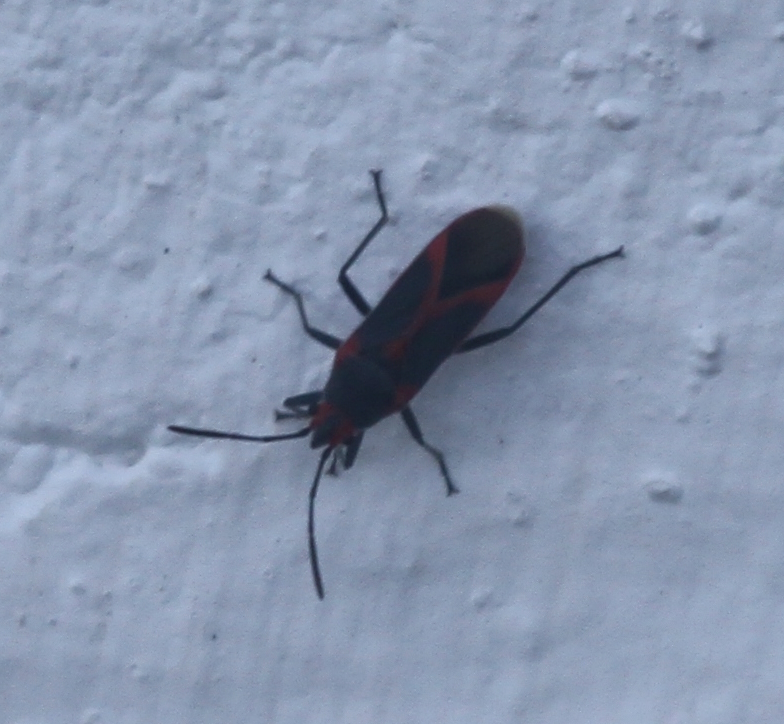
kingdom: Animalia
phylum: Arthropoda
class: Insecta
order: Hemiptera
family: Lygaeidae
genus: Caenocoris
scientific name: Caenocoris nerii
